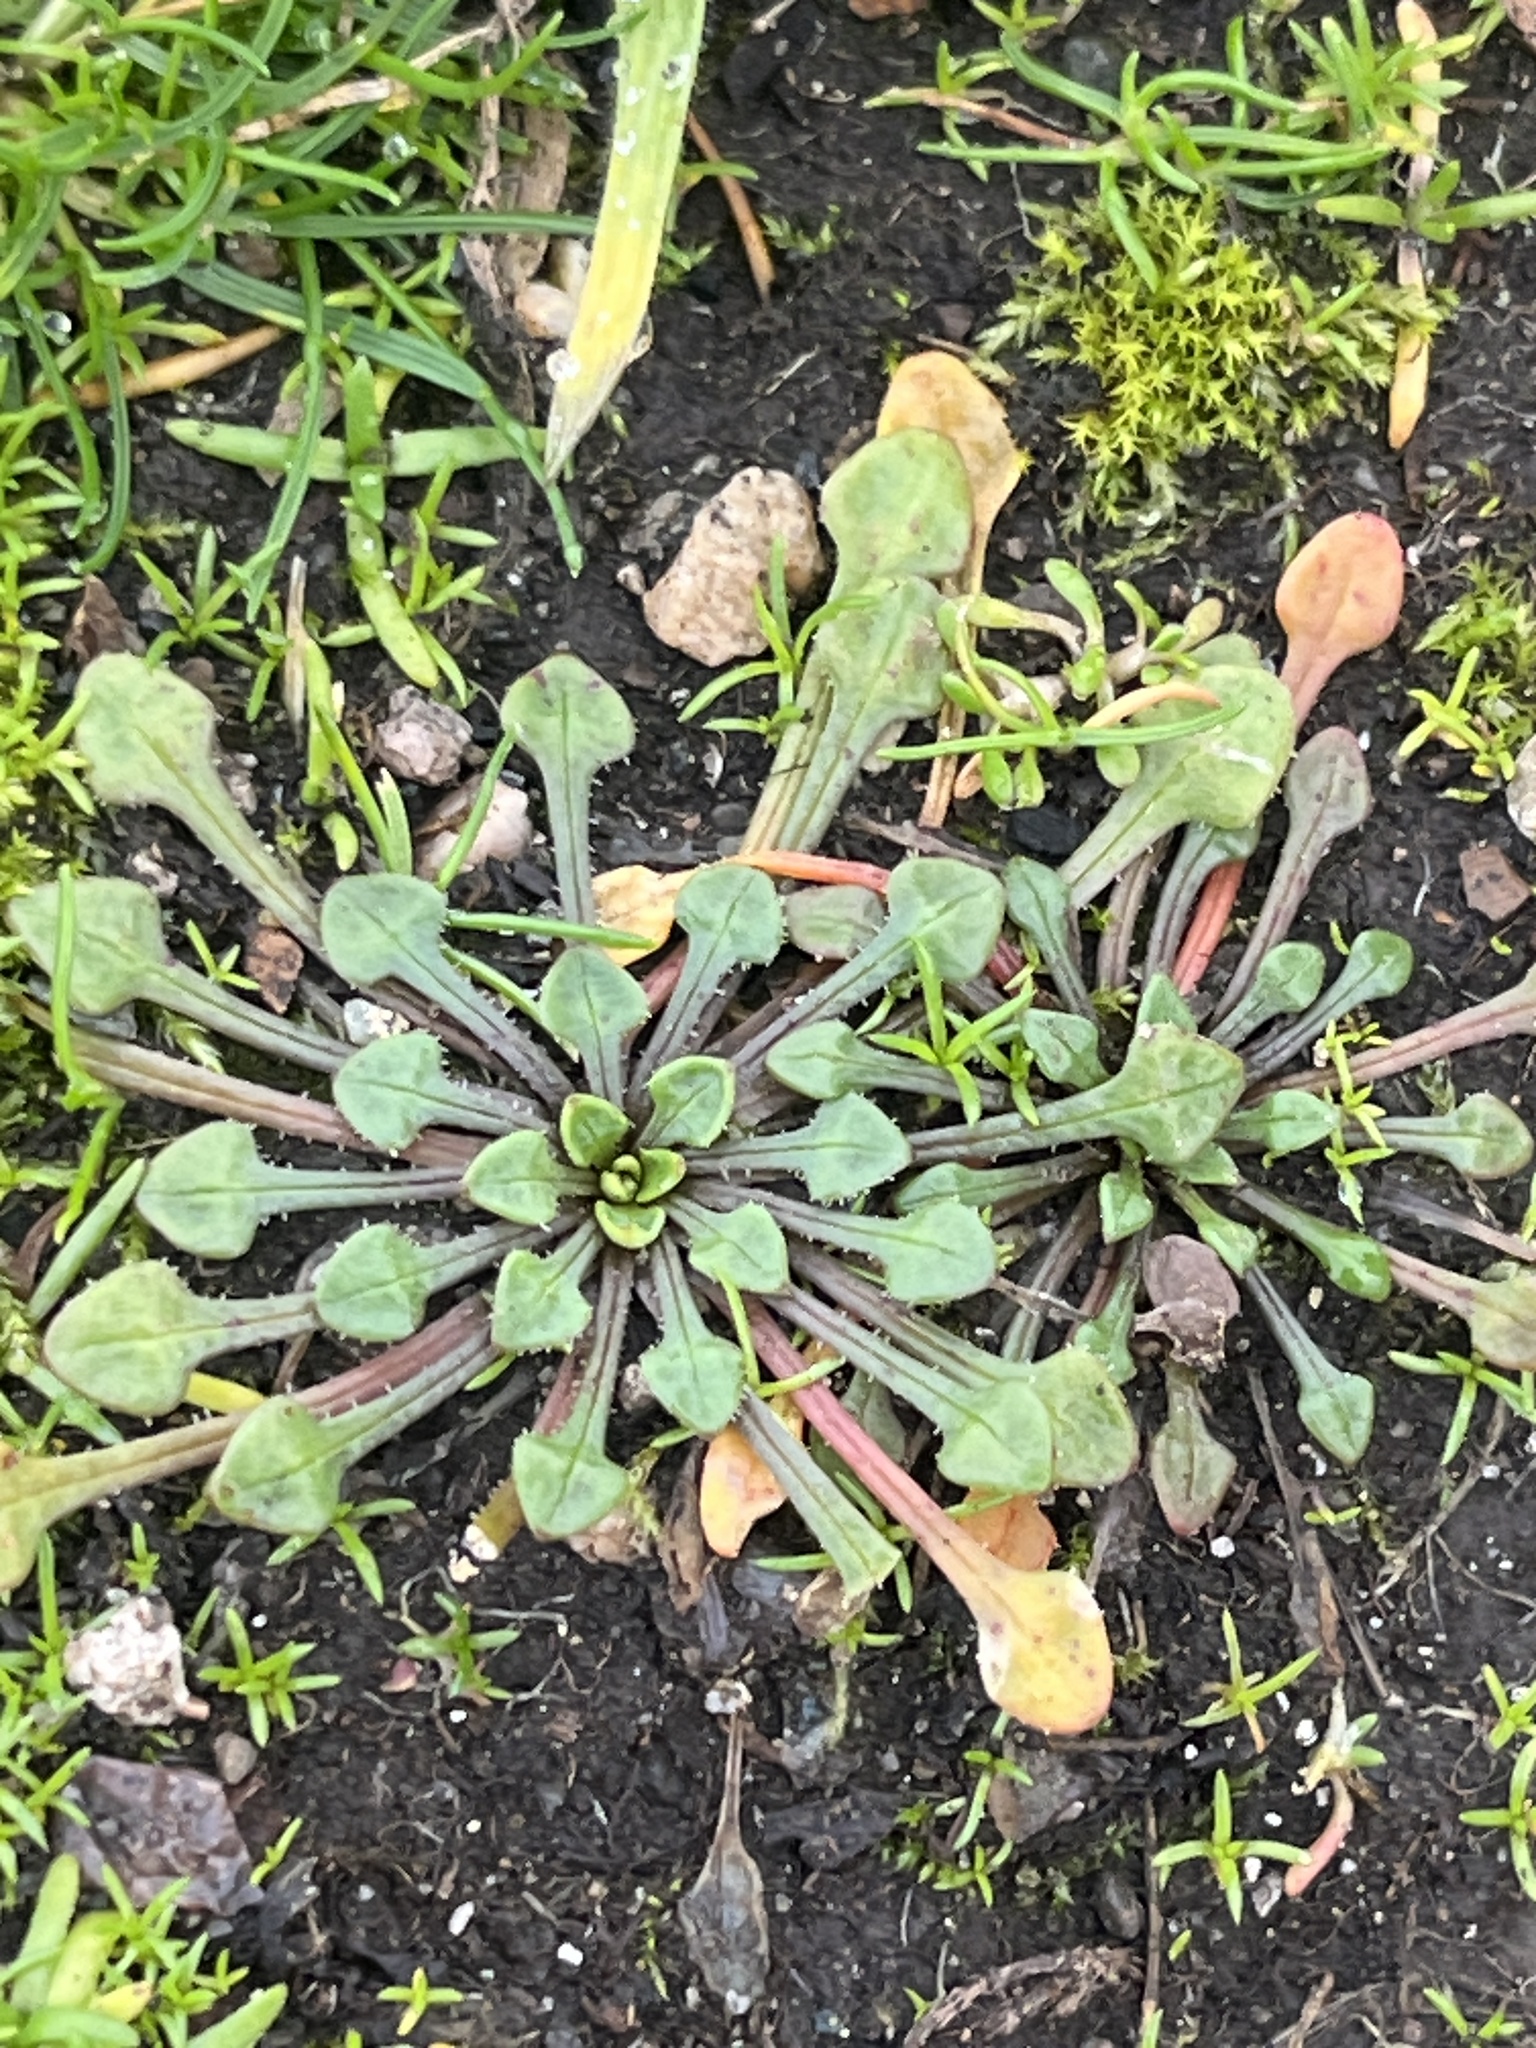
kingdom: Plantae
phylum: Tracheophyta
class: Magnoliopsida
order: Caryophyllales
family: Montiaceae
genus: Calandrinia
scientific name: Calandrinia menziesii
